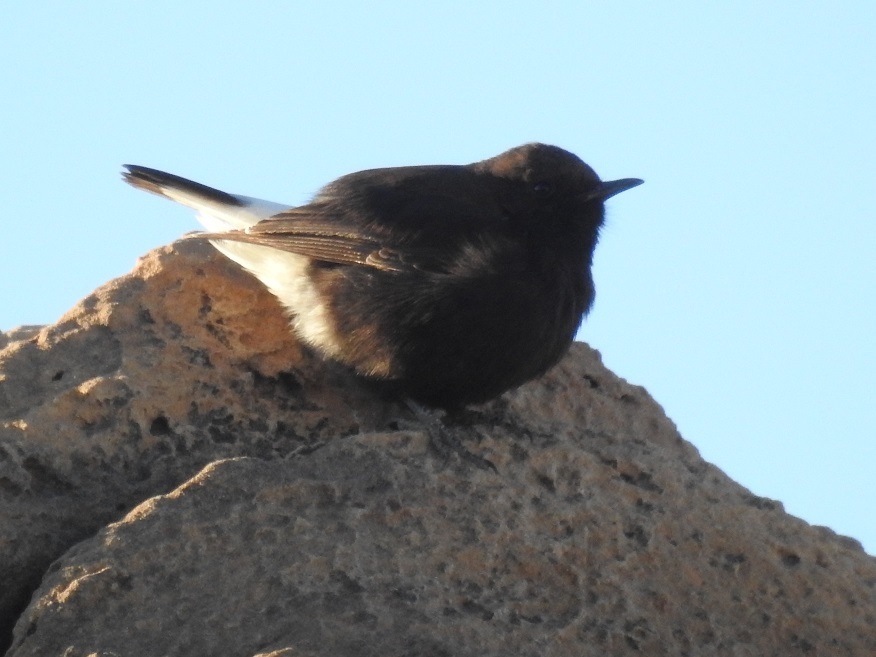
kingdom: Animalia
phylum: Chordata
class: Aves
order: Passeriformes
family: Muscicapidae
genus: Oenanthe
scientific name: Oenanthe leucura
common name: Black wheatear
